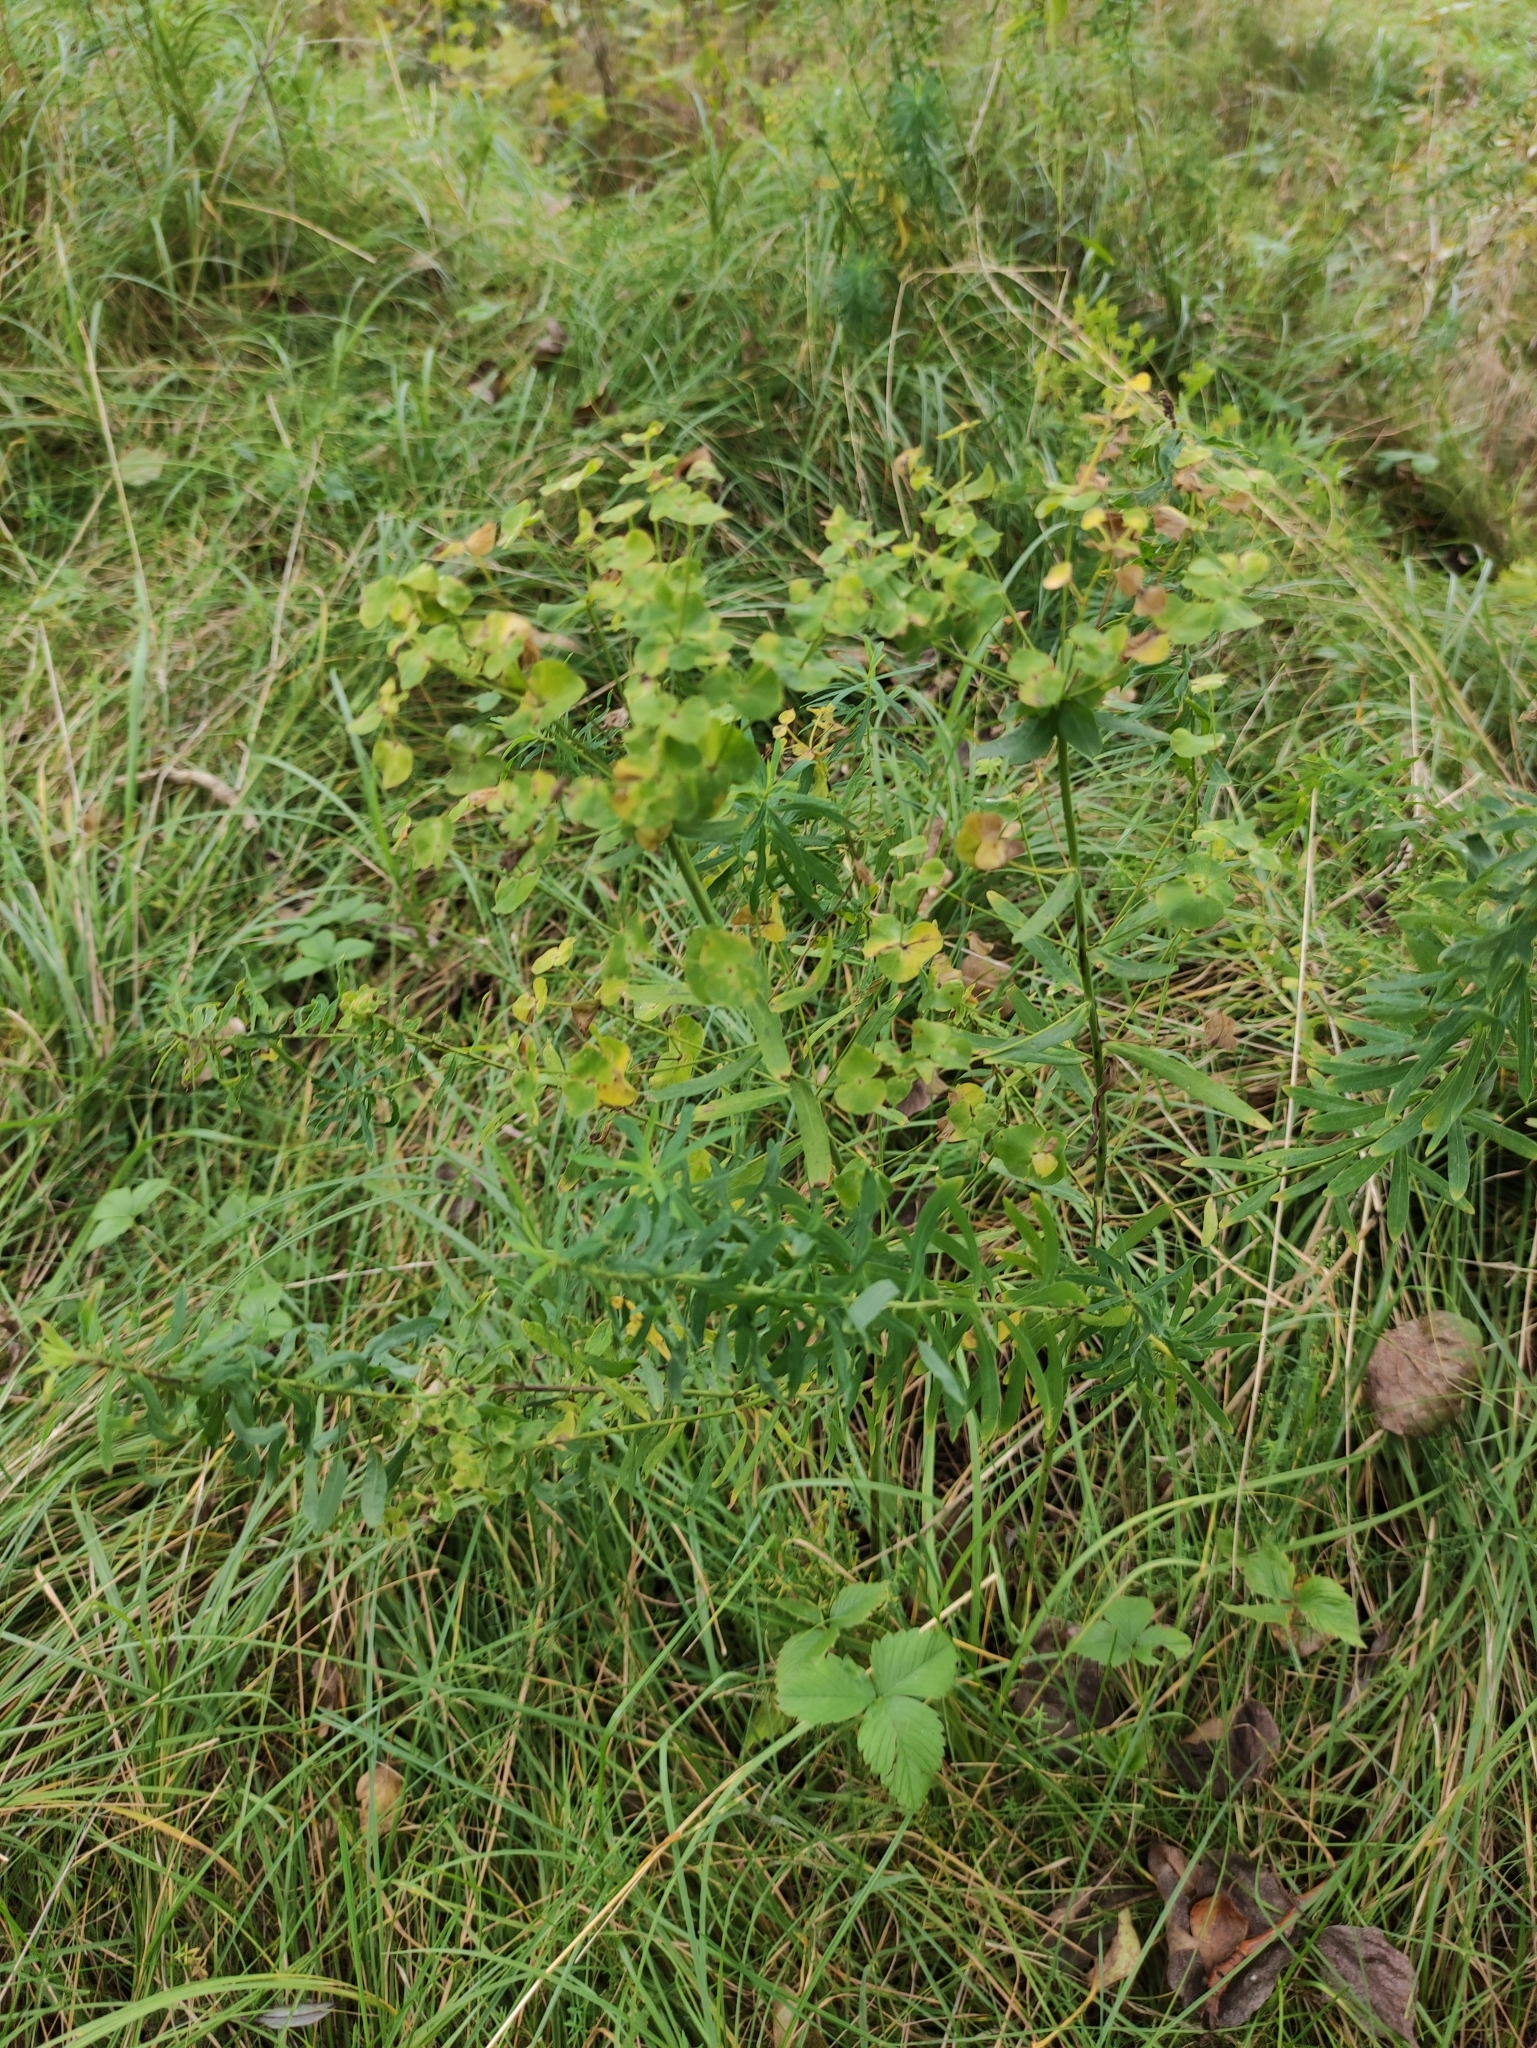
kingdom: Plantae
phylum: Tracheophyta
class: Magnoliopsida
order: Malpighiales
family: Euphorbiaceae
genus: Euphorbia
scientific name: Euphorbia virgata
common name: Leafy spurge
